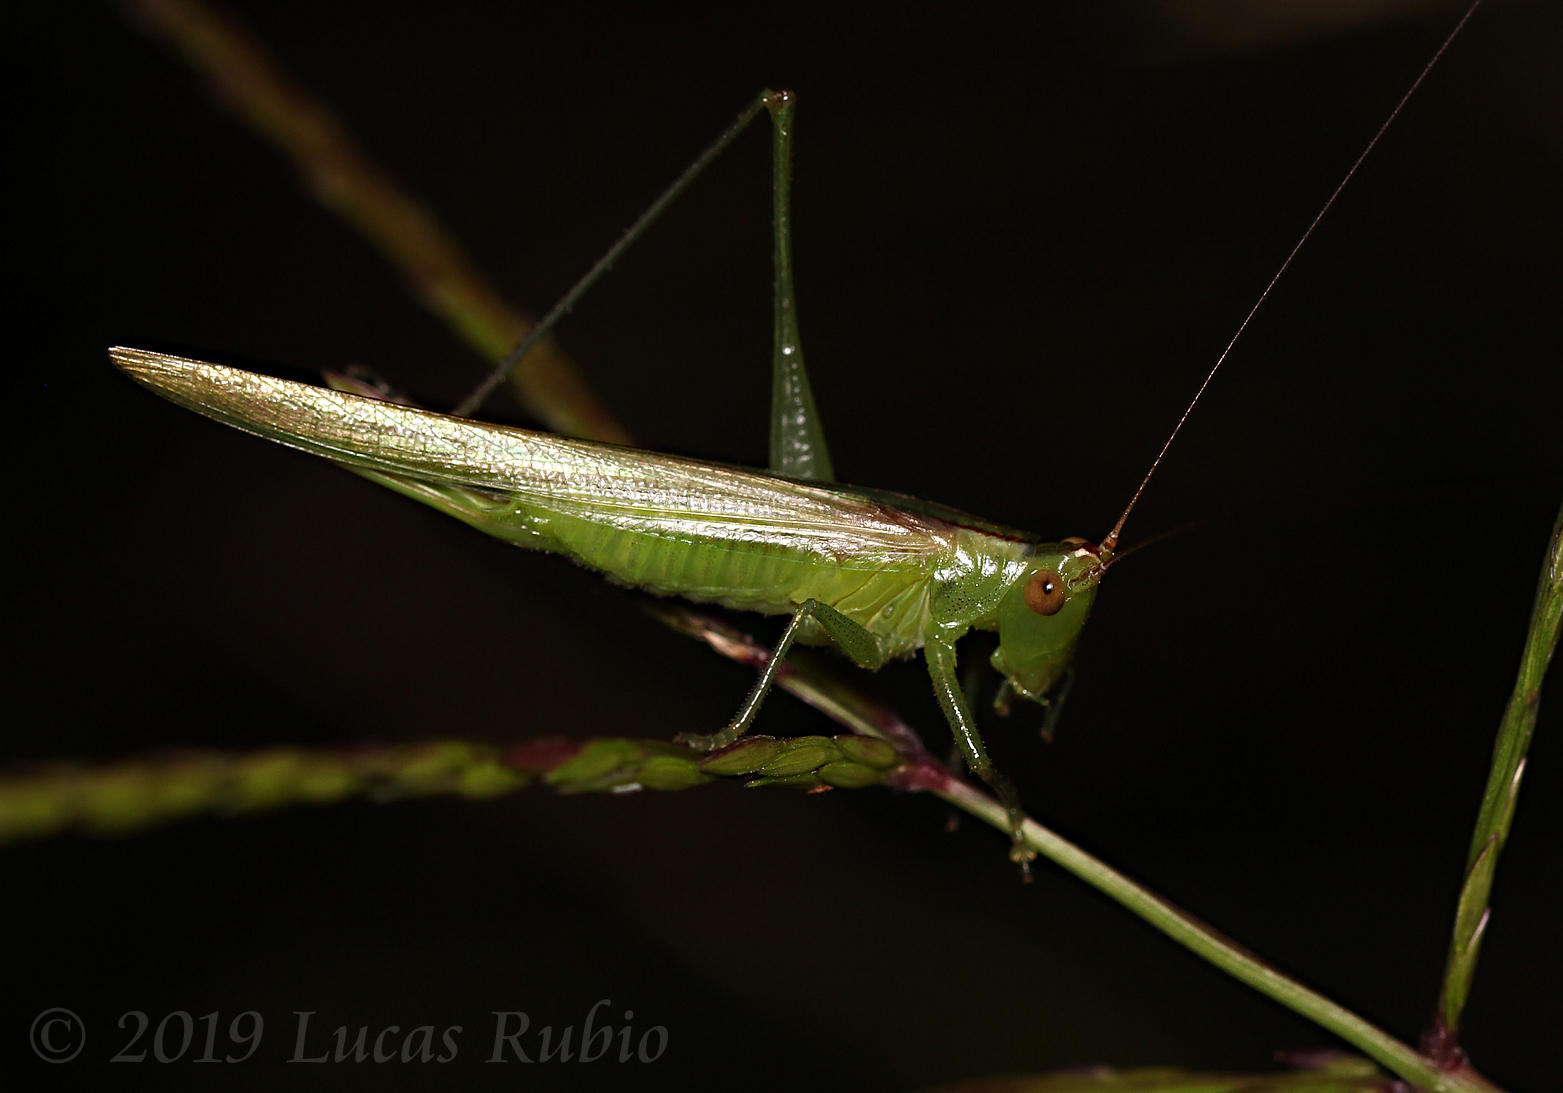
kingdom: Animalia
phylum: Arthropoda
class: Insecta
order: Orthoptera
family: Tettigoniidae
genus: Conocephalus
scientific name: Conocephalus longipes
